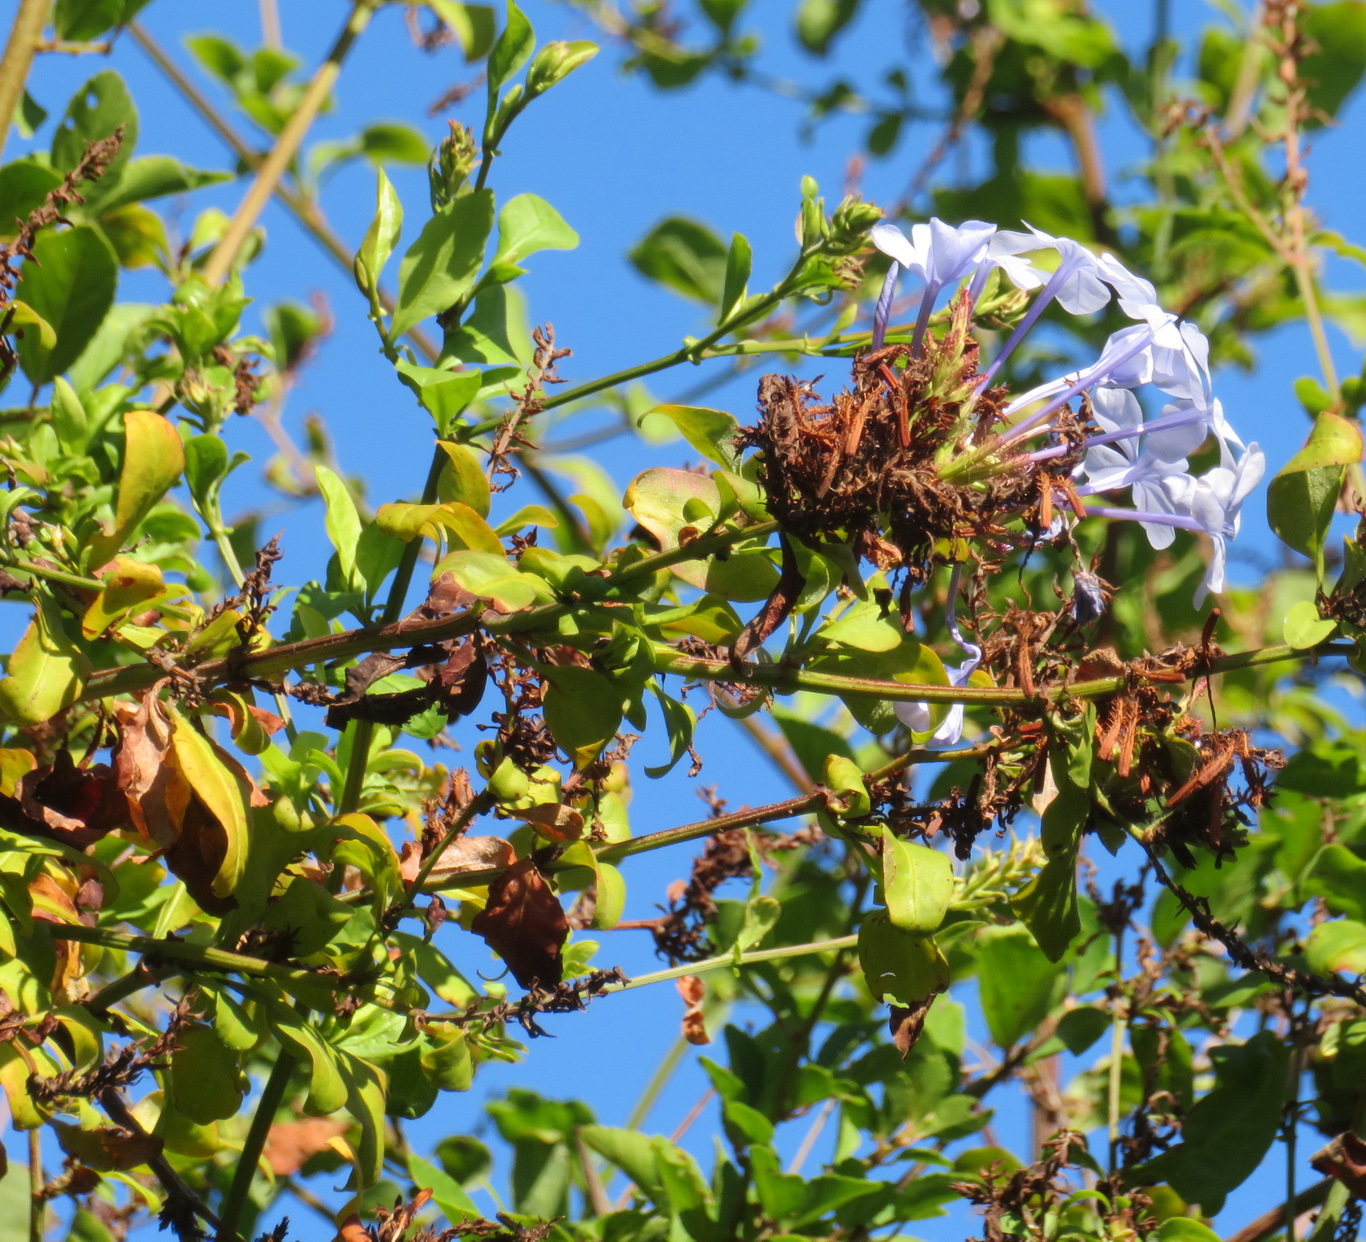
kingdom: Plantae
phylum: Tracheophyta
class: Magnoliopsida
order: Caryophyllales
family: Plumbaginaceae
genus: Plumbago
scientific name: Plumbago auriculata
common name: Cape leadwort
